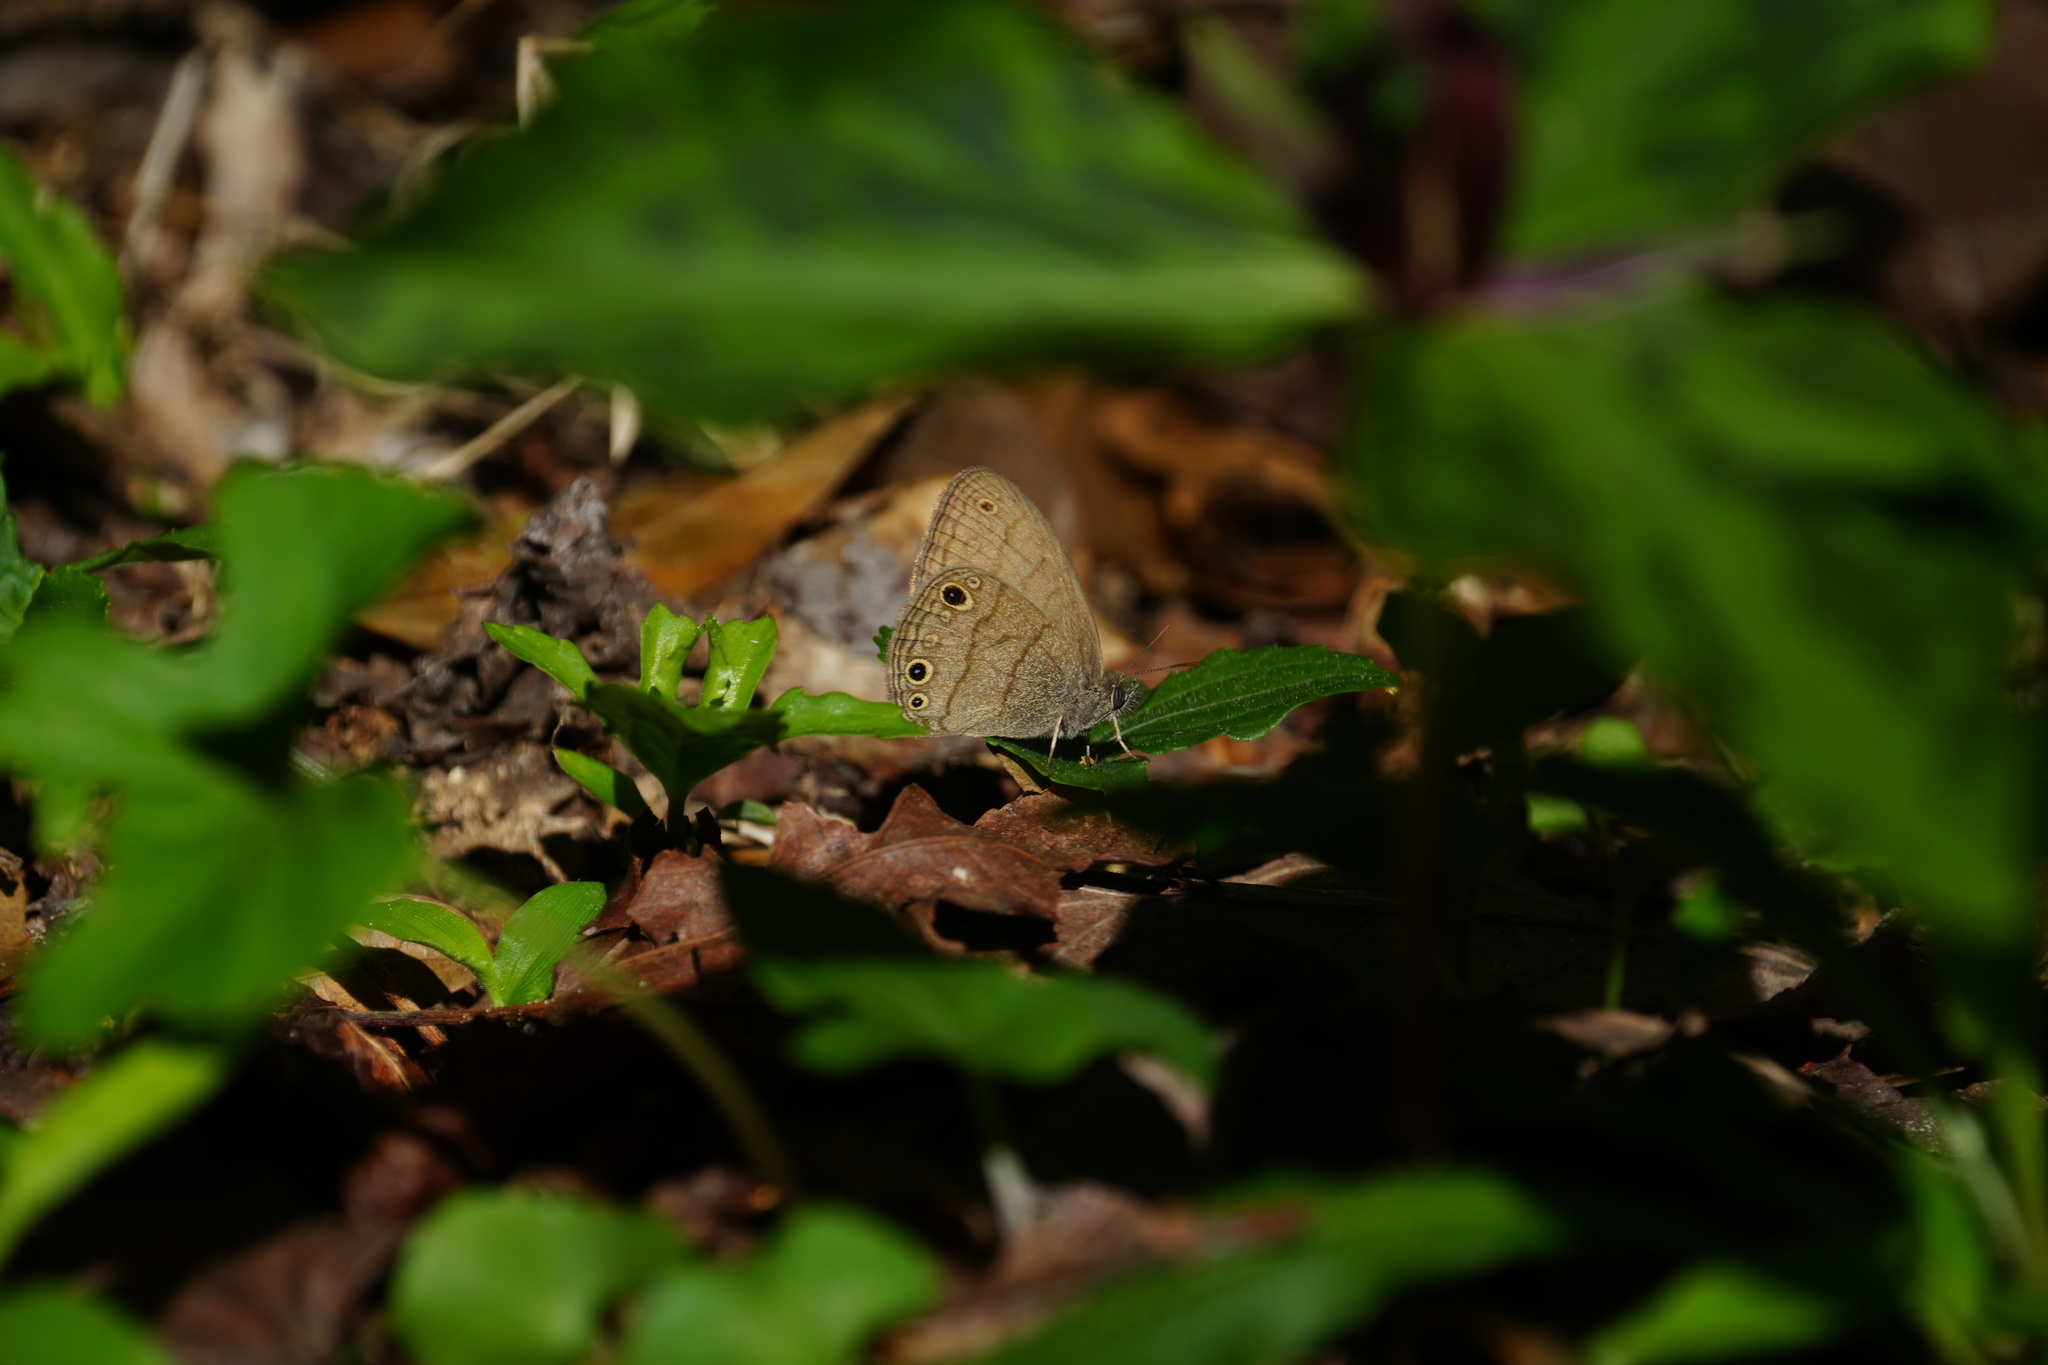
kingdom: Animalia
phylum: Arthropoda
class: Insecta
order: Lepidoptera
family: Nymphalidae
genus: Hermeuptychia
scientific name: Hermeuptychia hermes
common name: Hermes satyr
